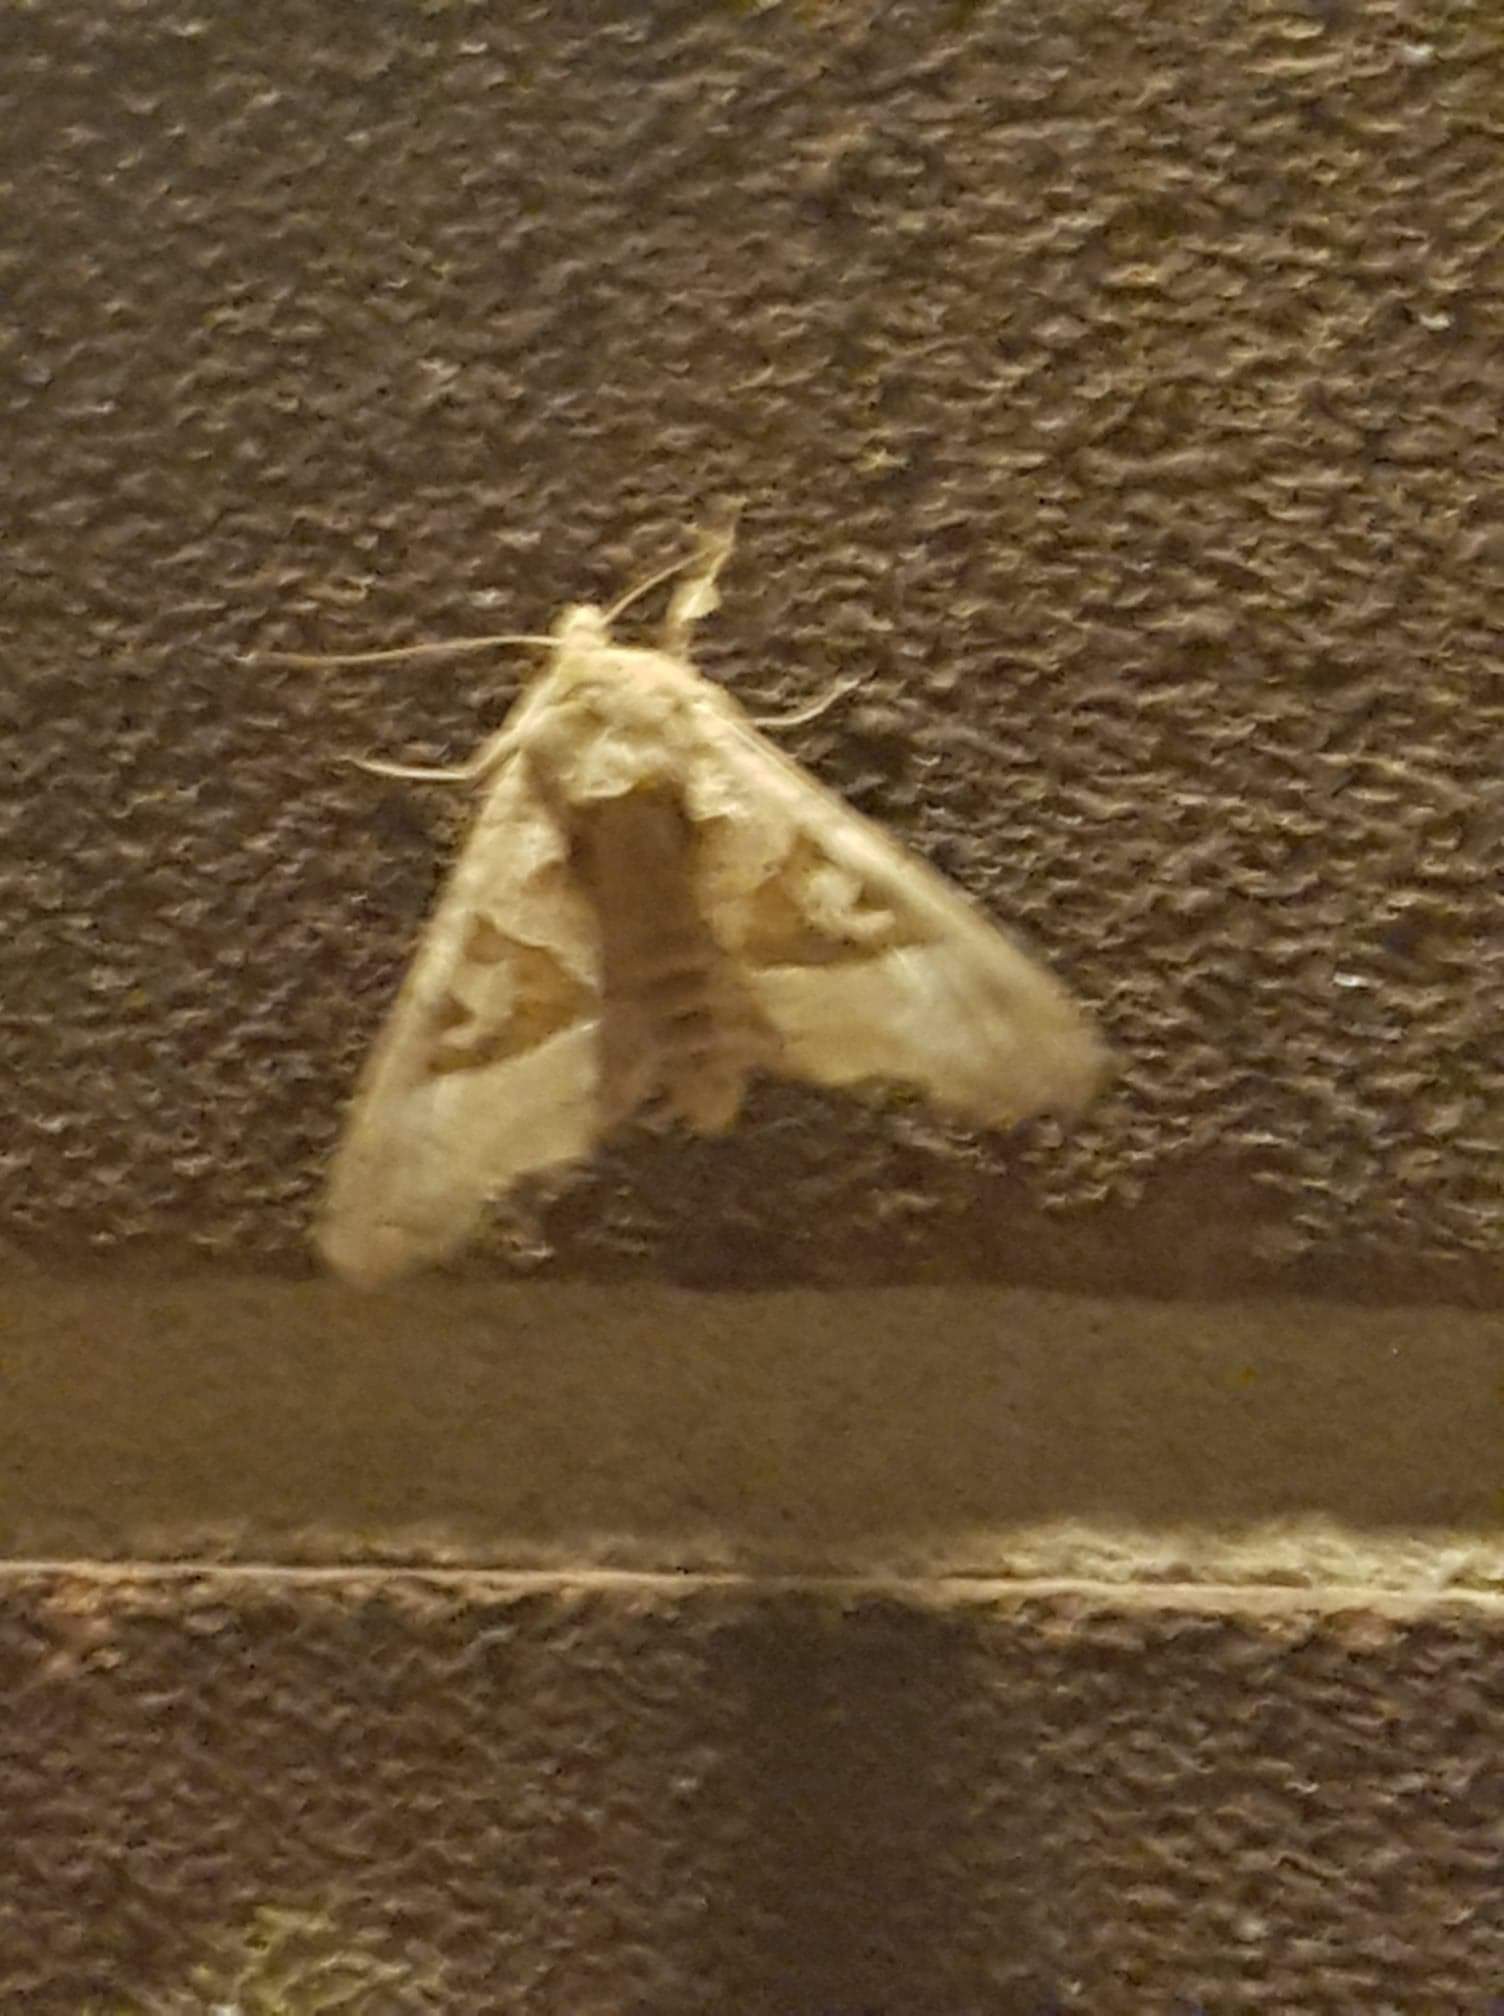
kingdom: Animalia
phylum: Arthropoda
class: Insecta
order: Lepidoptera
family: Noctuidae
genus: Phlogophora
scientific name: Phlogophora meticulosa
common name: Angle shades
